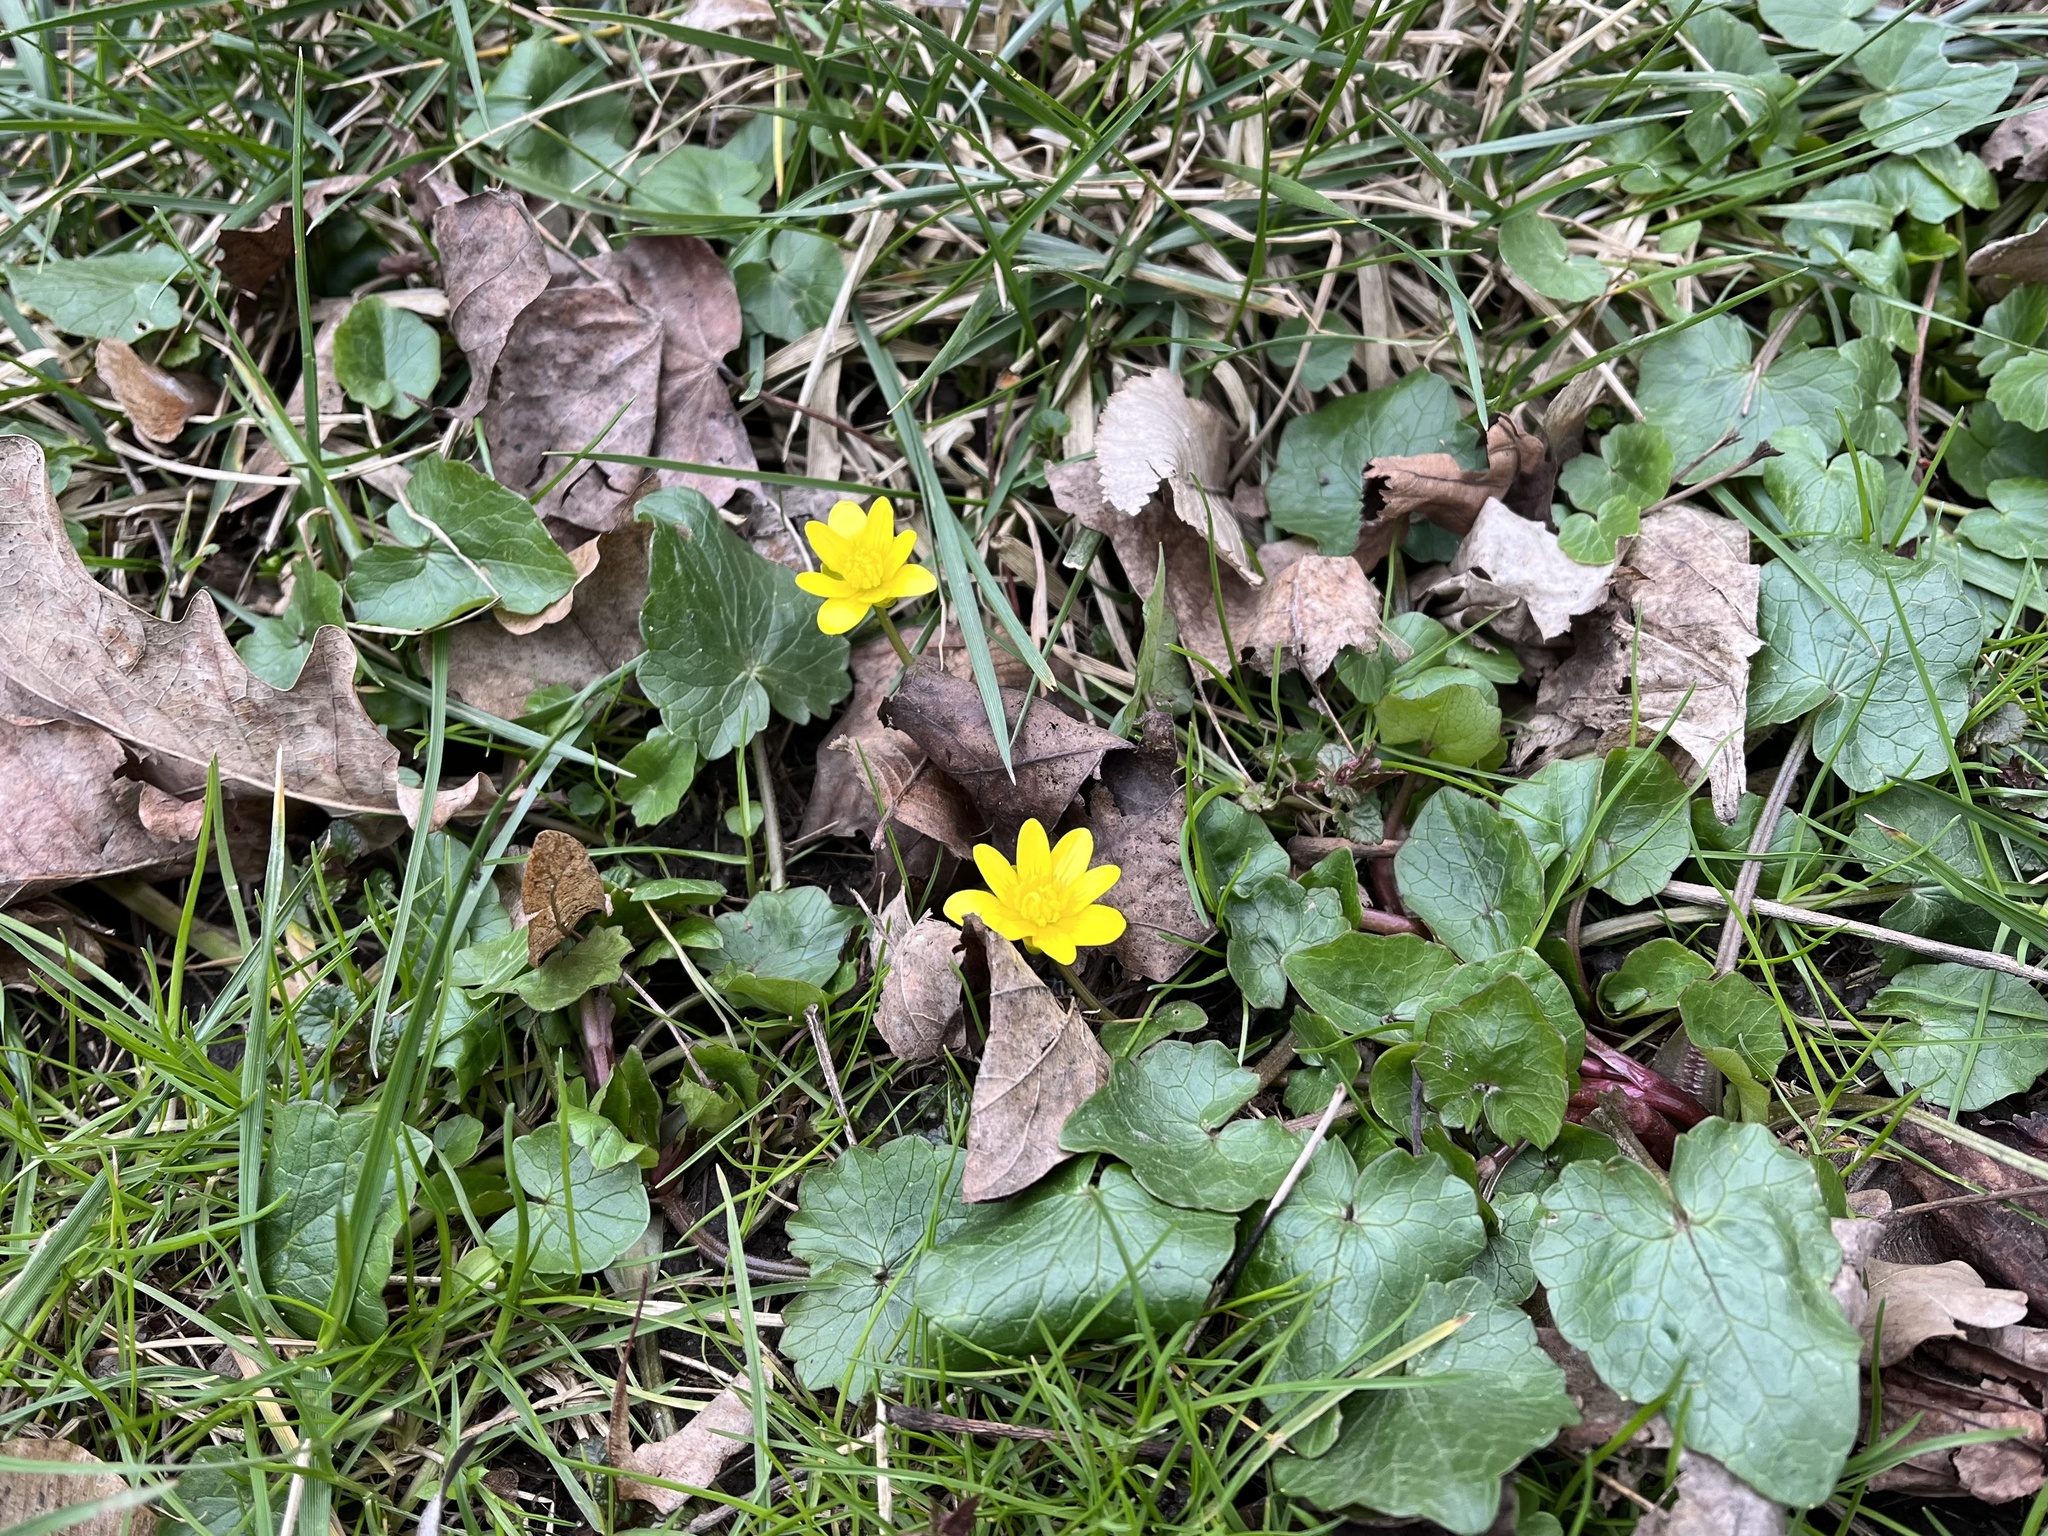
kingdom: Plantae
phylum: Tracheophyta
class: Magnoliopsida
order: Ranunculales
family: Ranunculaceae
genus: Ficaria
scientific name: Ficaria verna
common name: Lesser celandine
